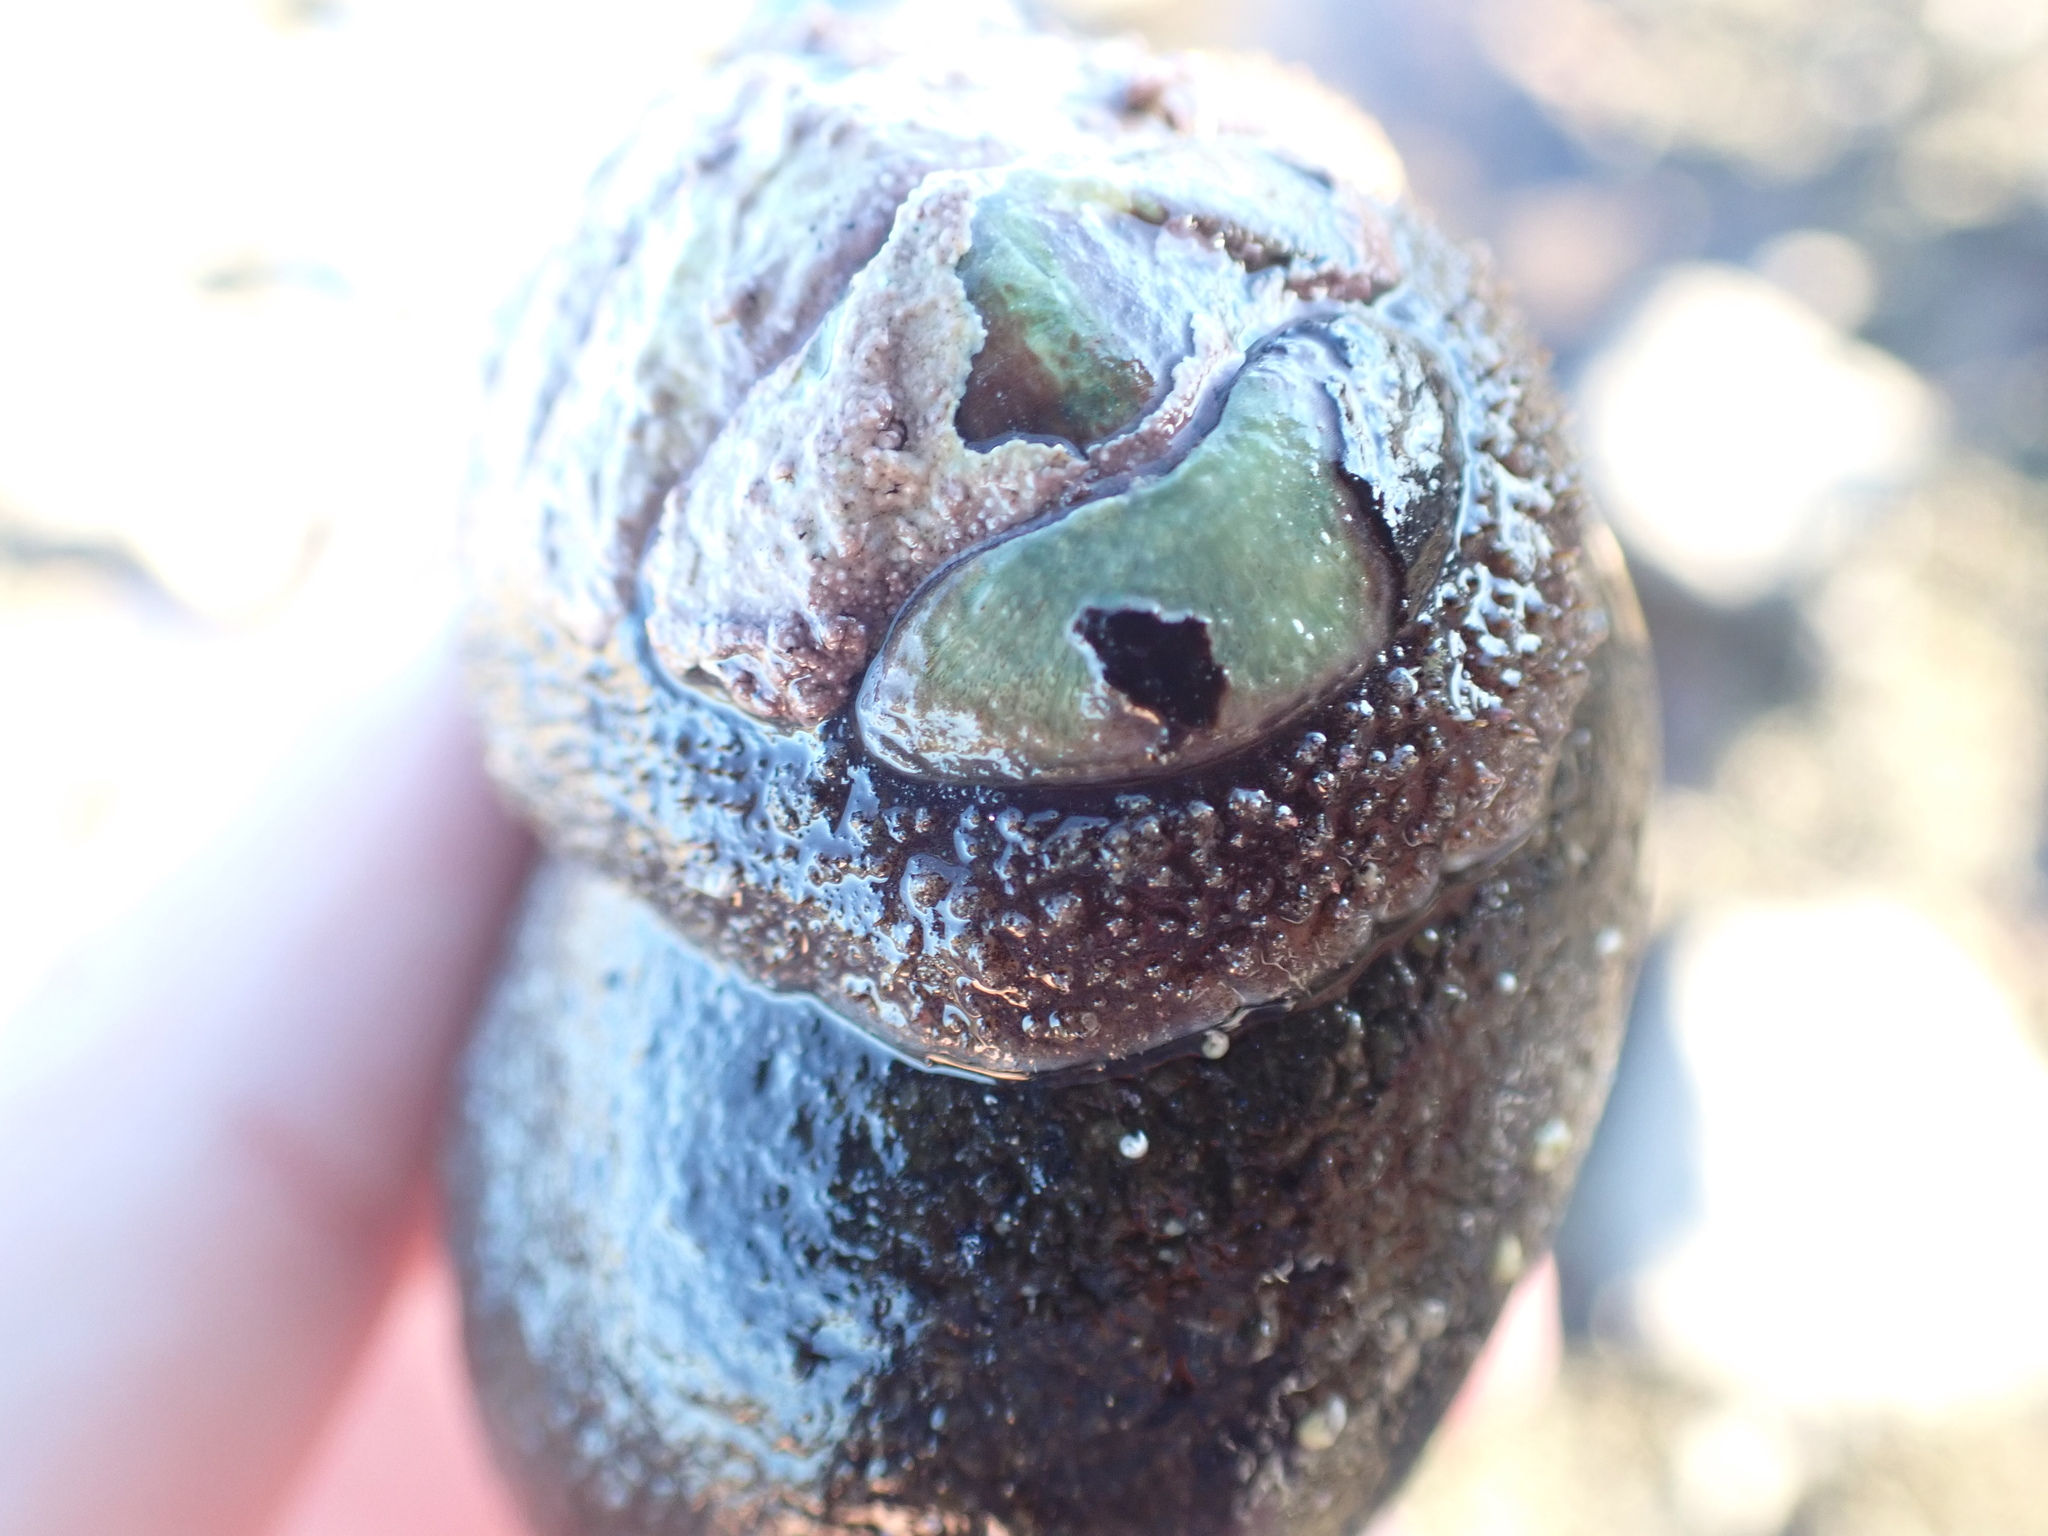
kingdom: Animalia
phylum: Mollusca
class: Polyplacophora
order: Callochitonida
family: Callochitonidae
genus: Eudoxochiton
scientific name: Eudoxochiton nobilis
